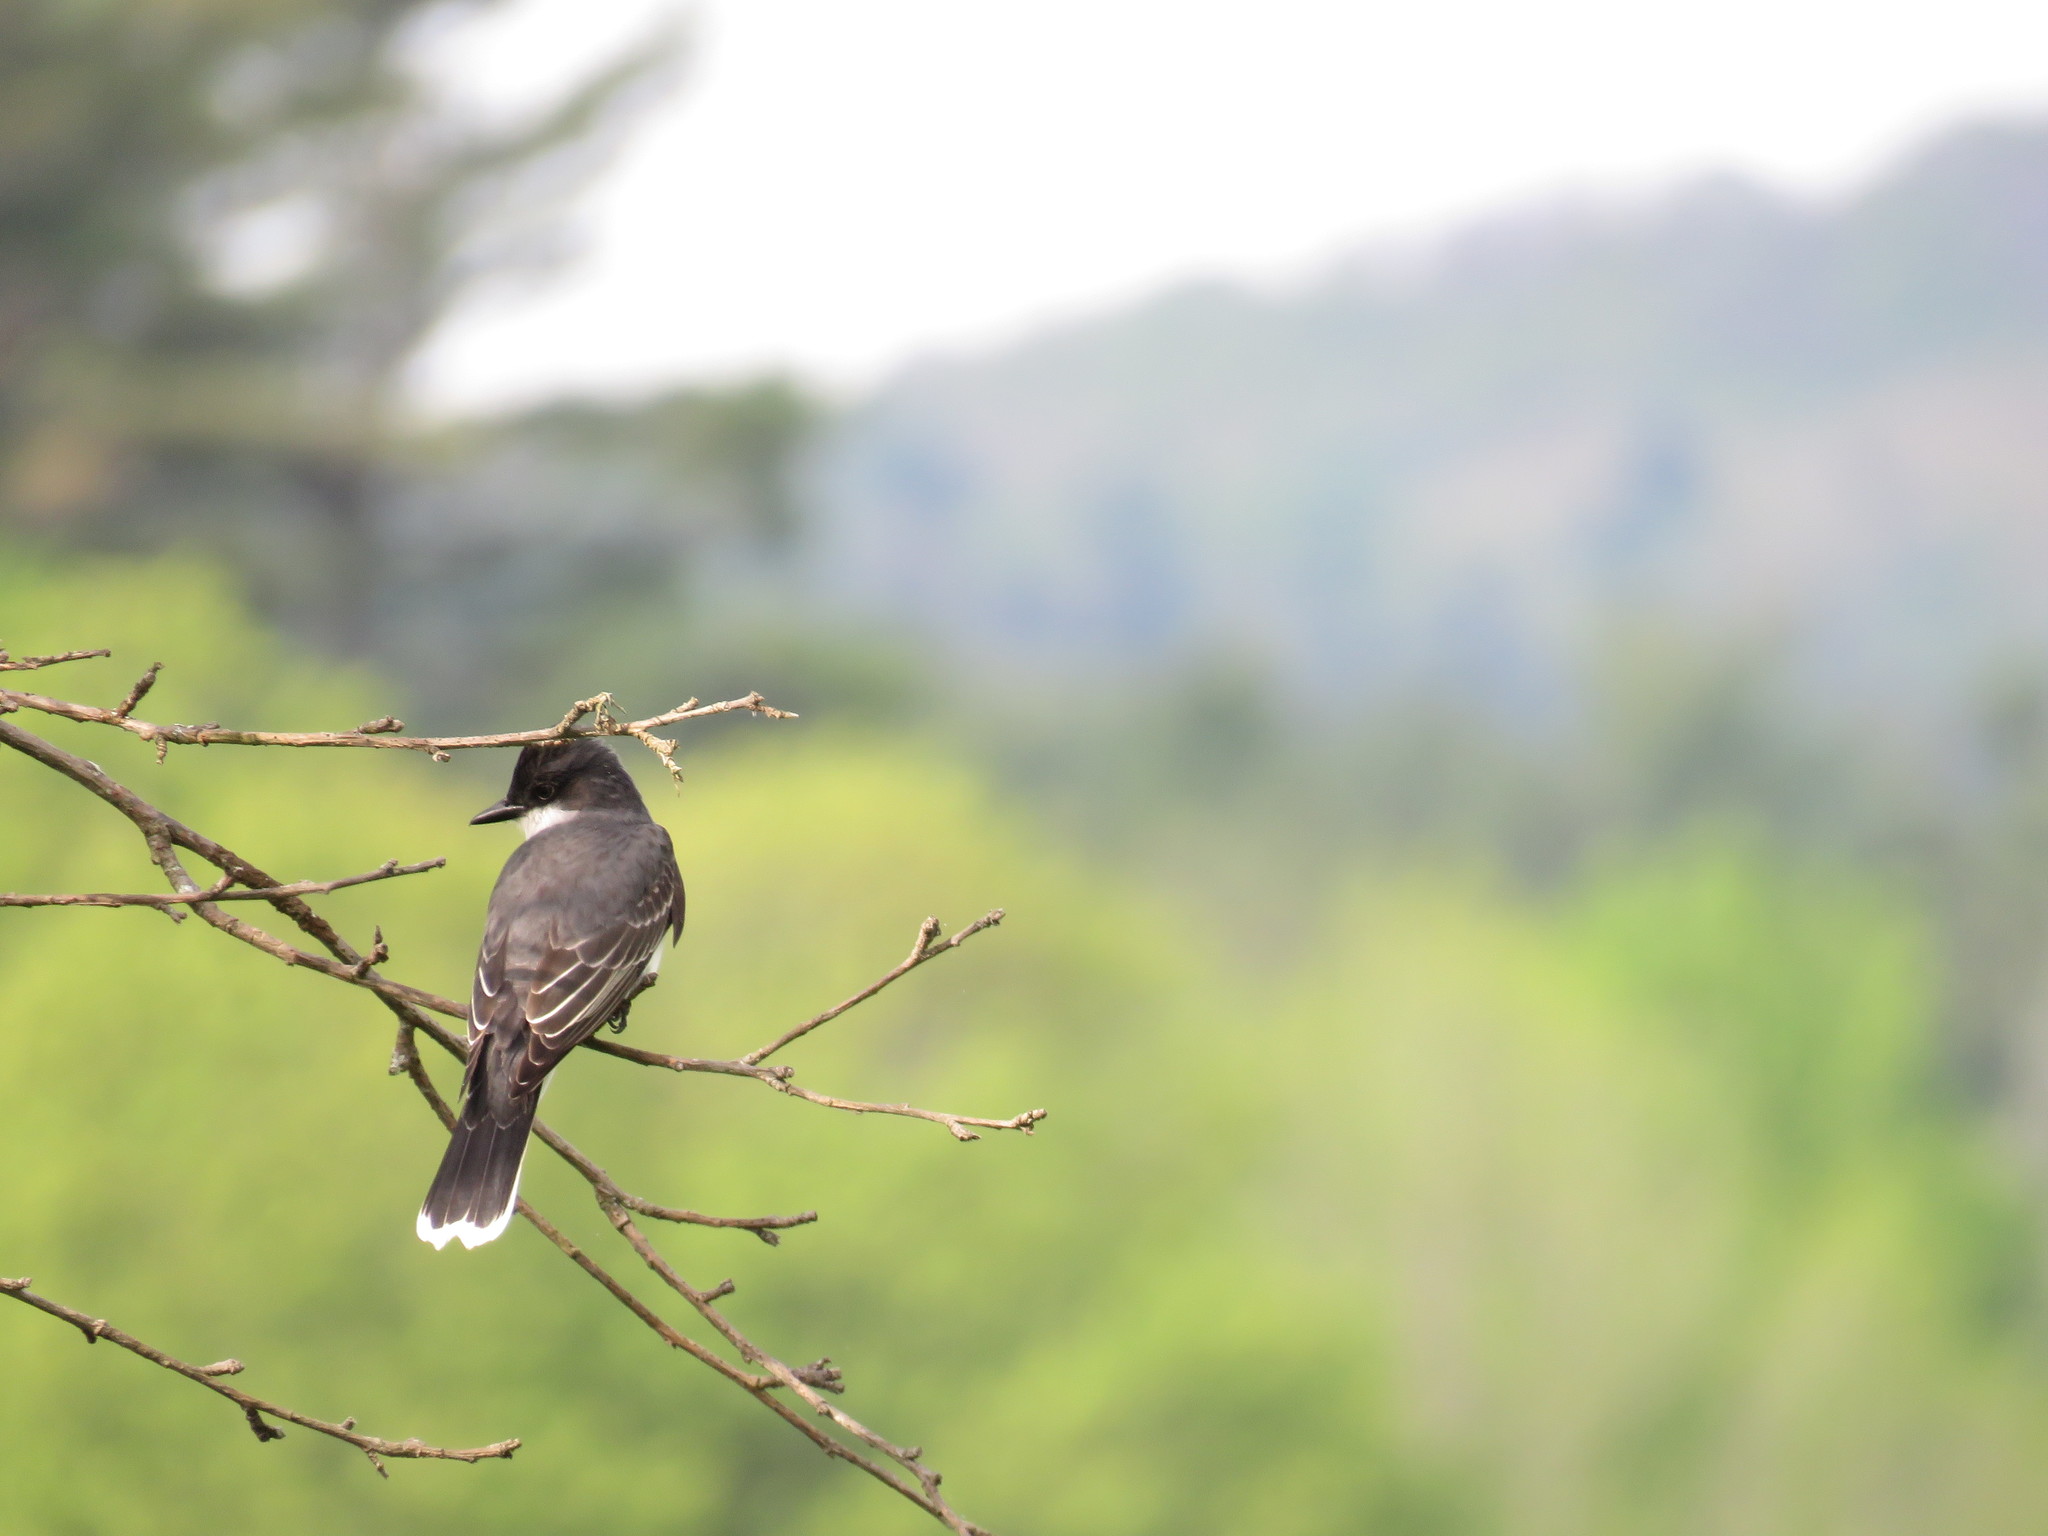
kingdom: Animalia
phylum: Chordata
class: Aves
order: Passeriformes
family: Tyrannidae
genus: Tyrannus
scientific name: Tyrannus tyrannus
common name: Eastern kingbird
